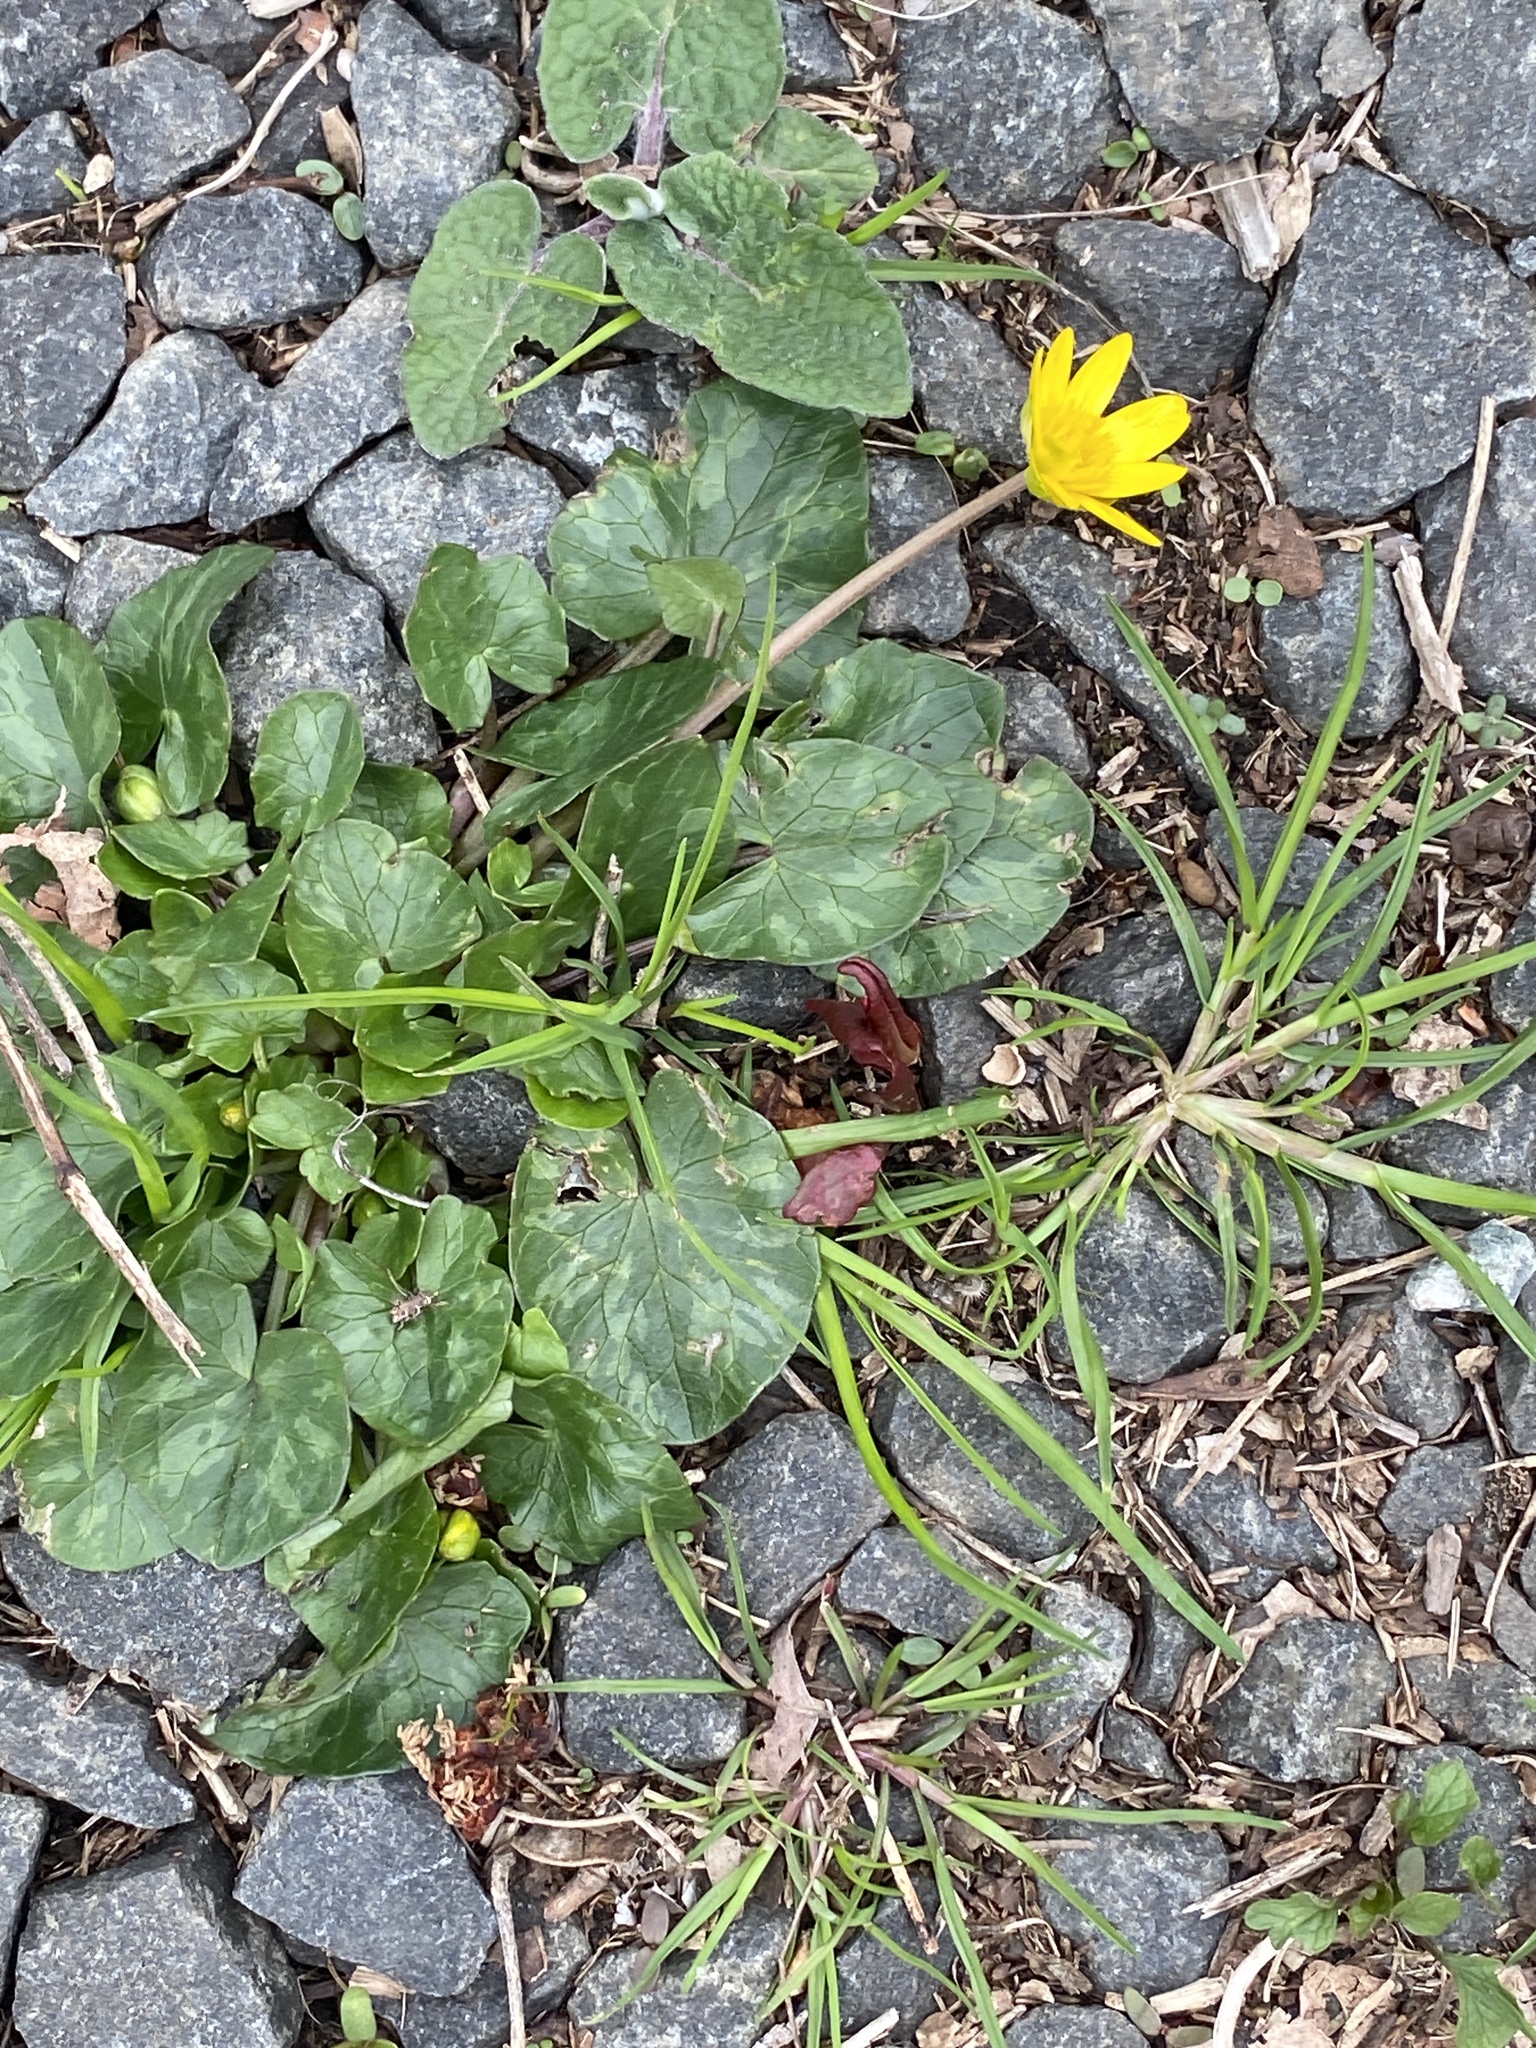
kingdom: Plantae
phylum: Tracheophyta
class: Magnoliopsida
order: Ranunculales
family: Ranunculaceae
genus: Ficaria
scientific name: Ficaria verna
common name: Lesser celandine
